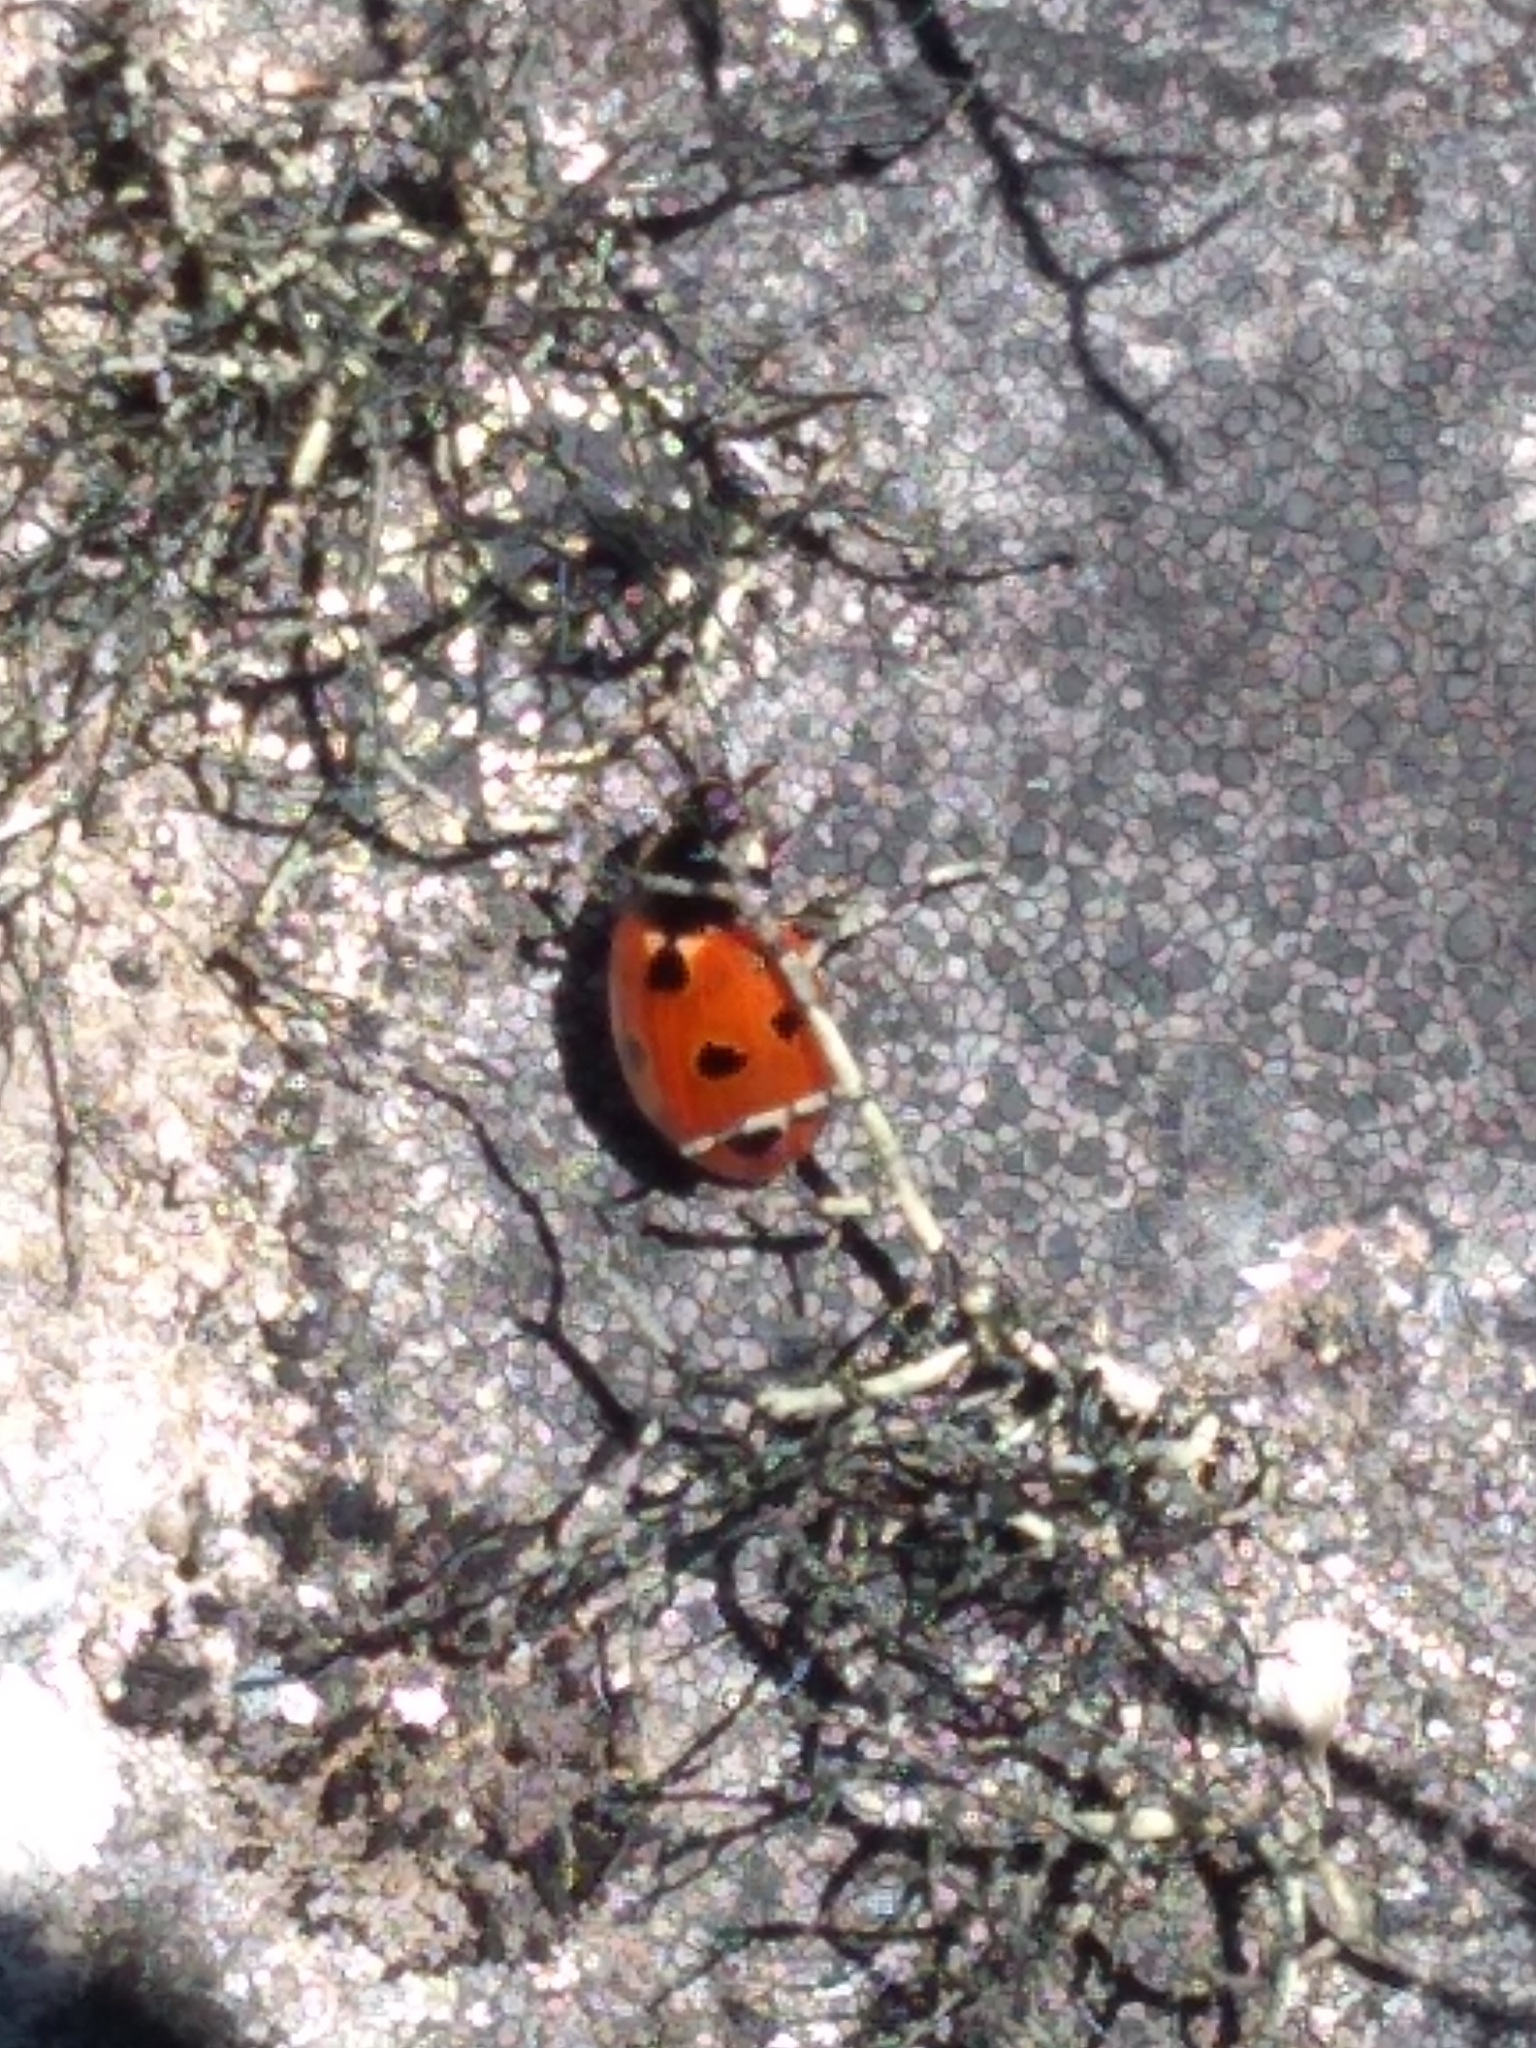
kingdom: Animalia
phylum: Arthropoda
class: Insecta
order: Coleoptera
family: Coccinellidae
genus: Coccinella
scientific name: Coccinella undecimpunctata
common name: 11-spot ladybird
